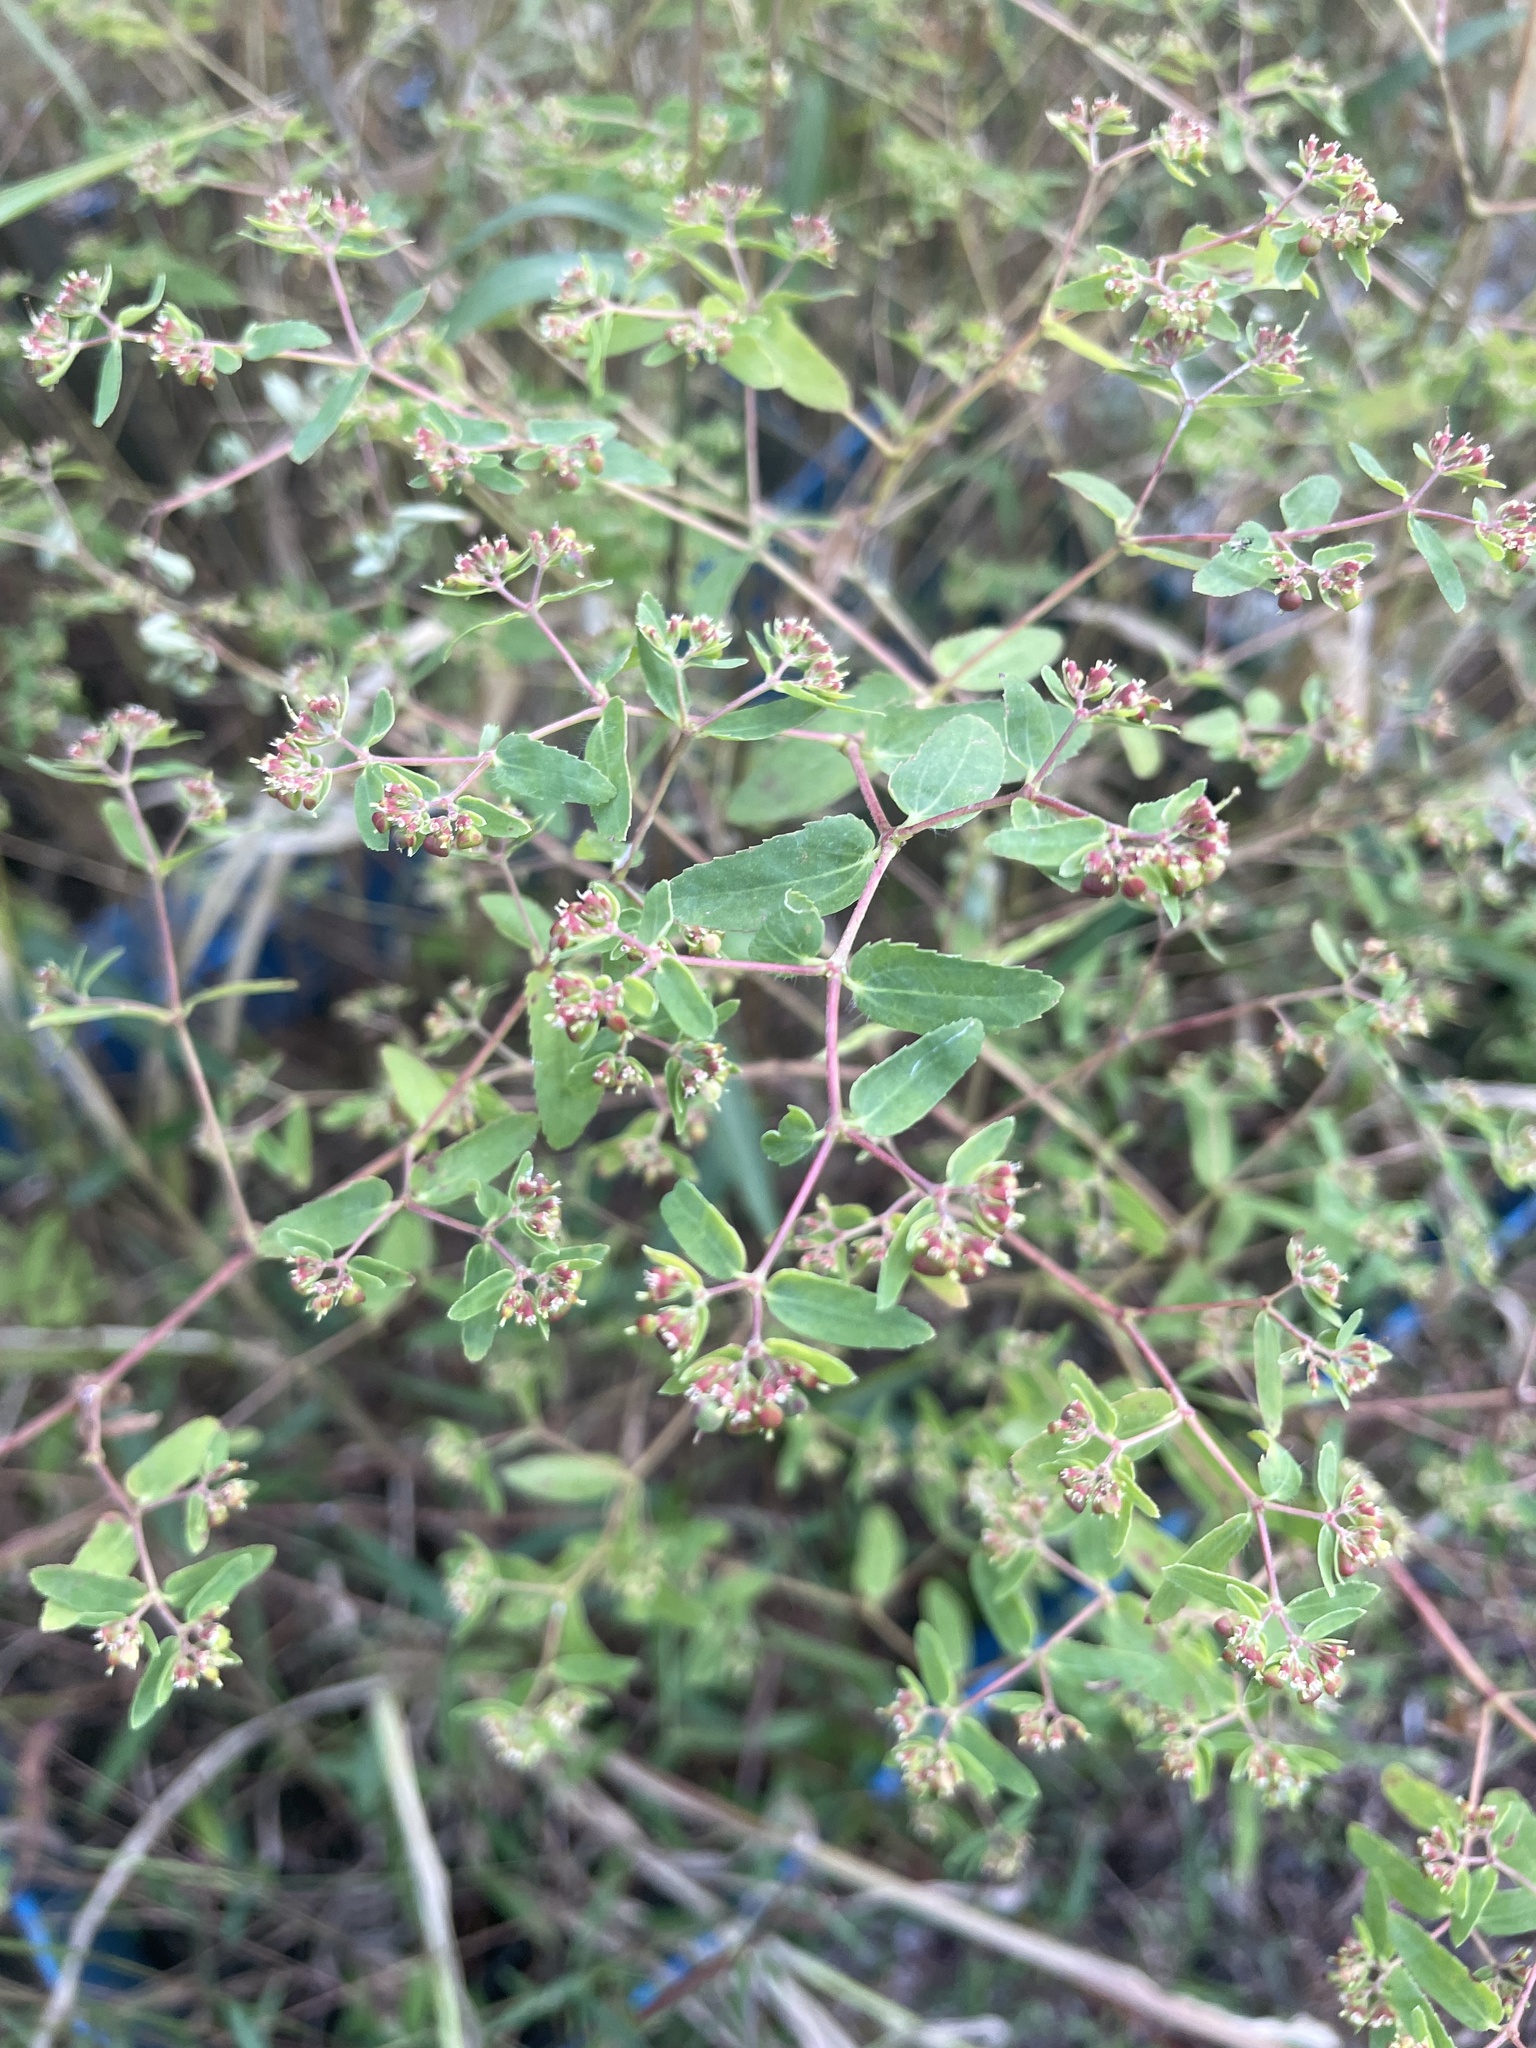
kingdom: Plantae
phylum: Tracheophyta
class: Magnoliopsida
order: Malpighiales
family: Euphorbiaceae
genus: Euphorbia
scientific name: Euphorbia nutans
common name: Eyebane
